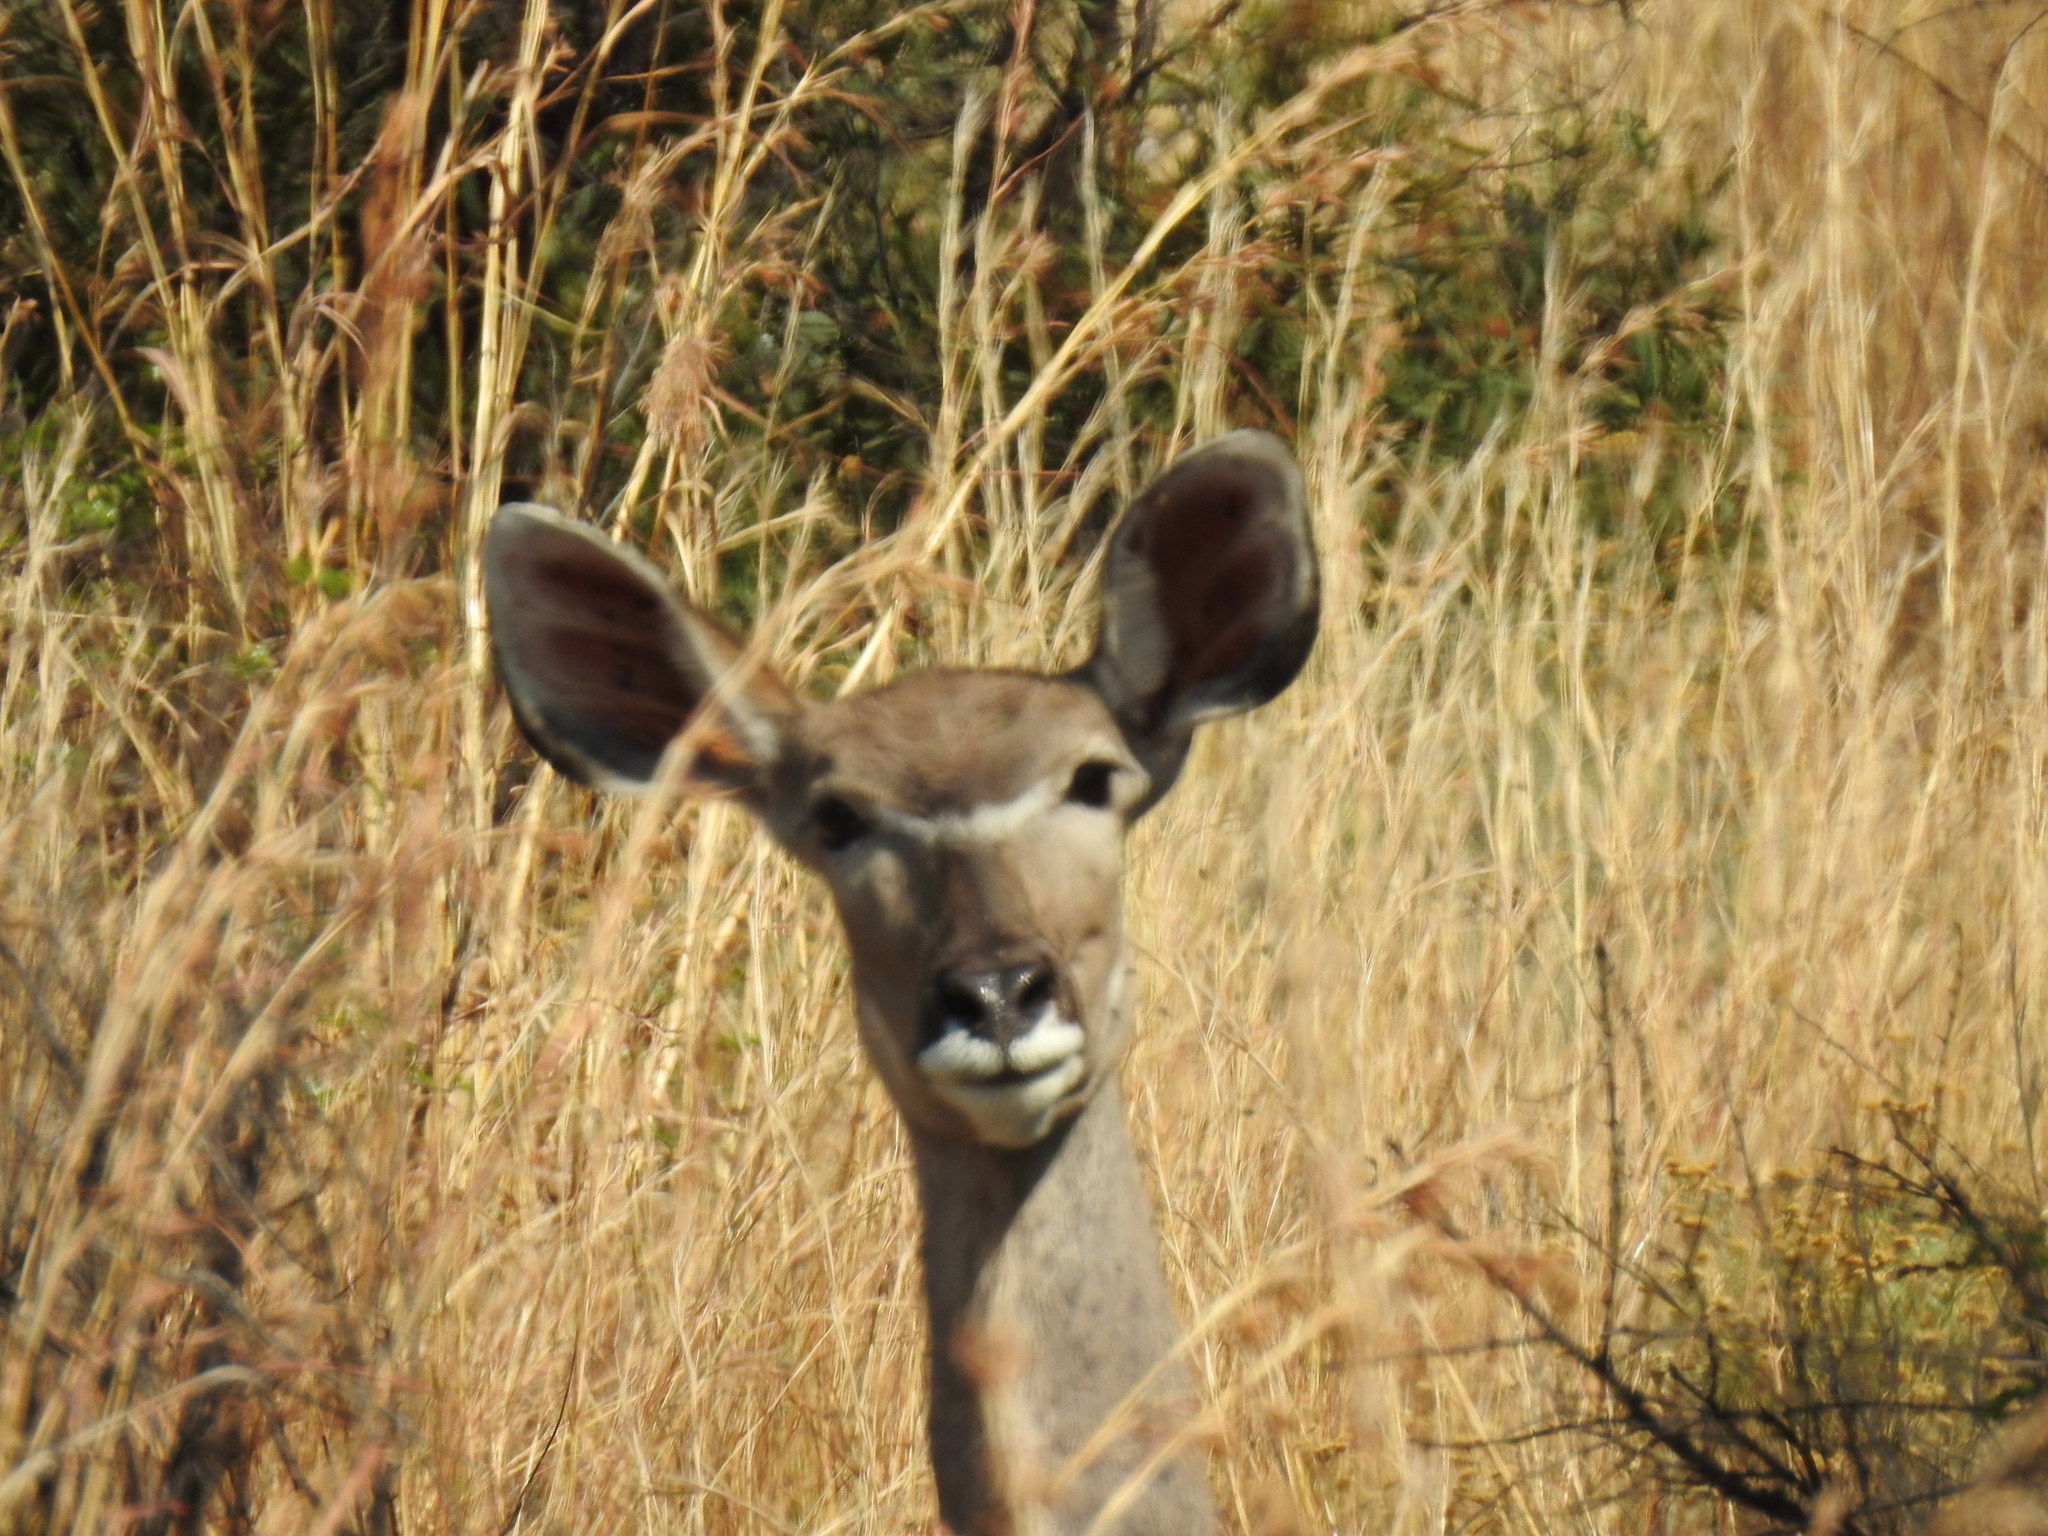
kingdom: Animalia
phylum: Chordata
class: Mammalia
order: Artiodactyla
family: Bovidae
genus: Tragelaphus
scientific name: Tragelaphus strepsiceros
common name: Greater kudu
